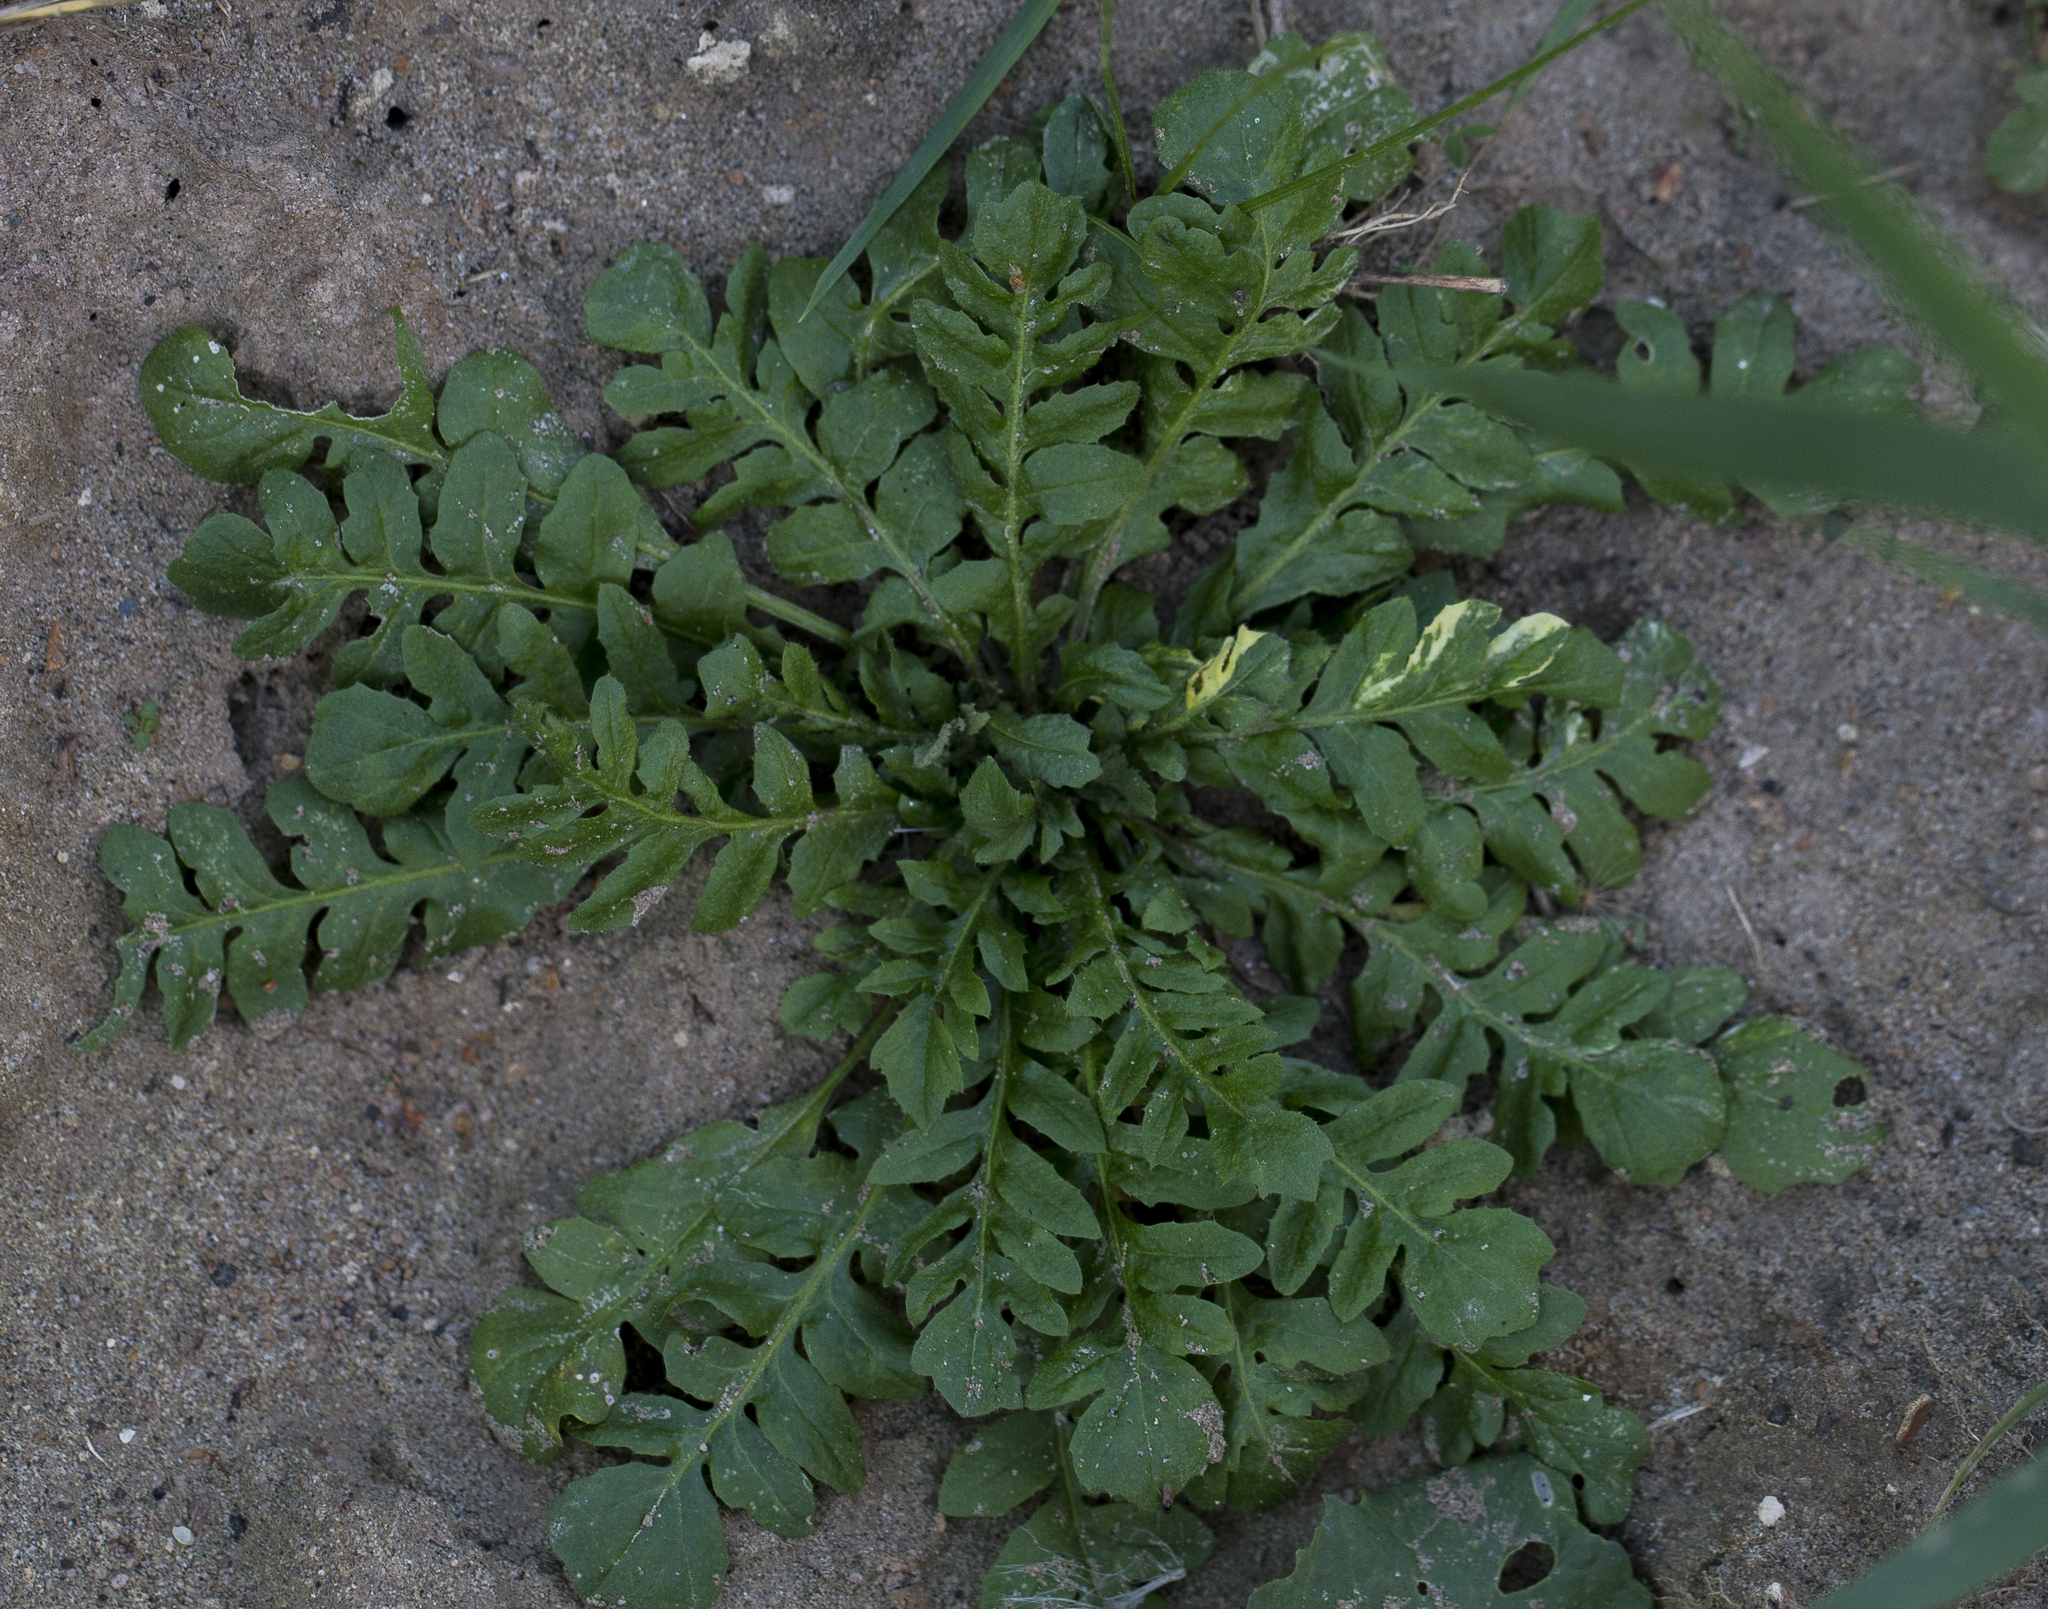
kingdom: Plantae
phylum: Tracheophyta
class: Magnoliopsida
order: Brassicales
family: Brassicaceae
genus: Capsella
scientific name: Capsella bursa-pastoris
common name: Shepherd's purse
